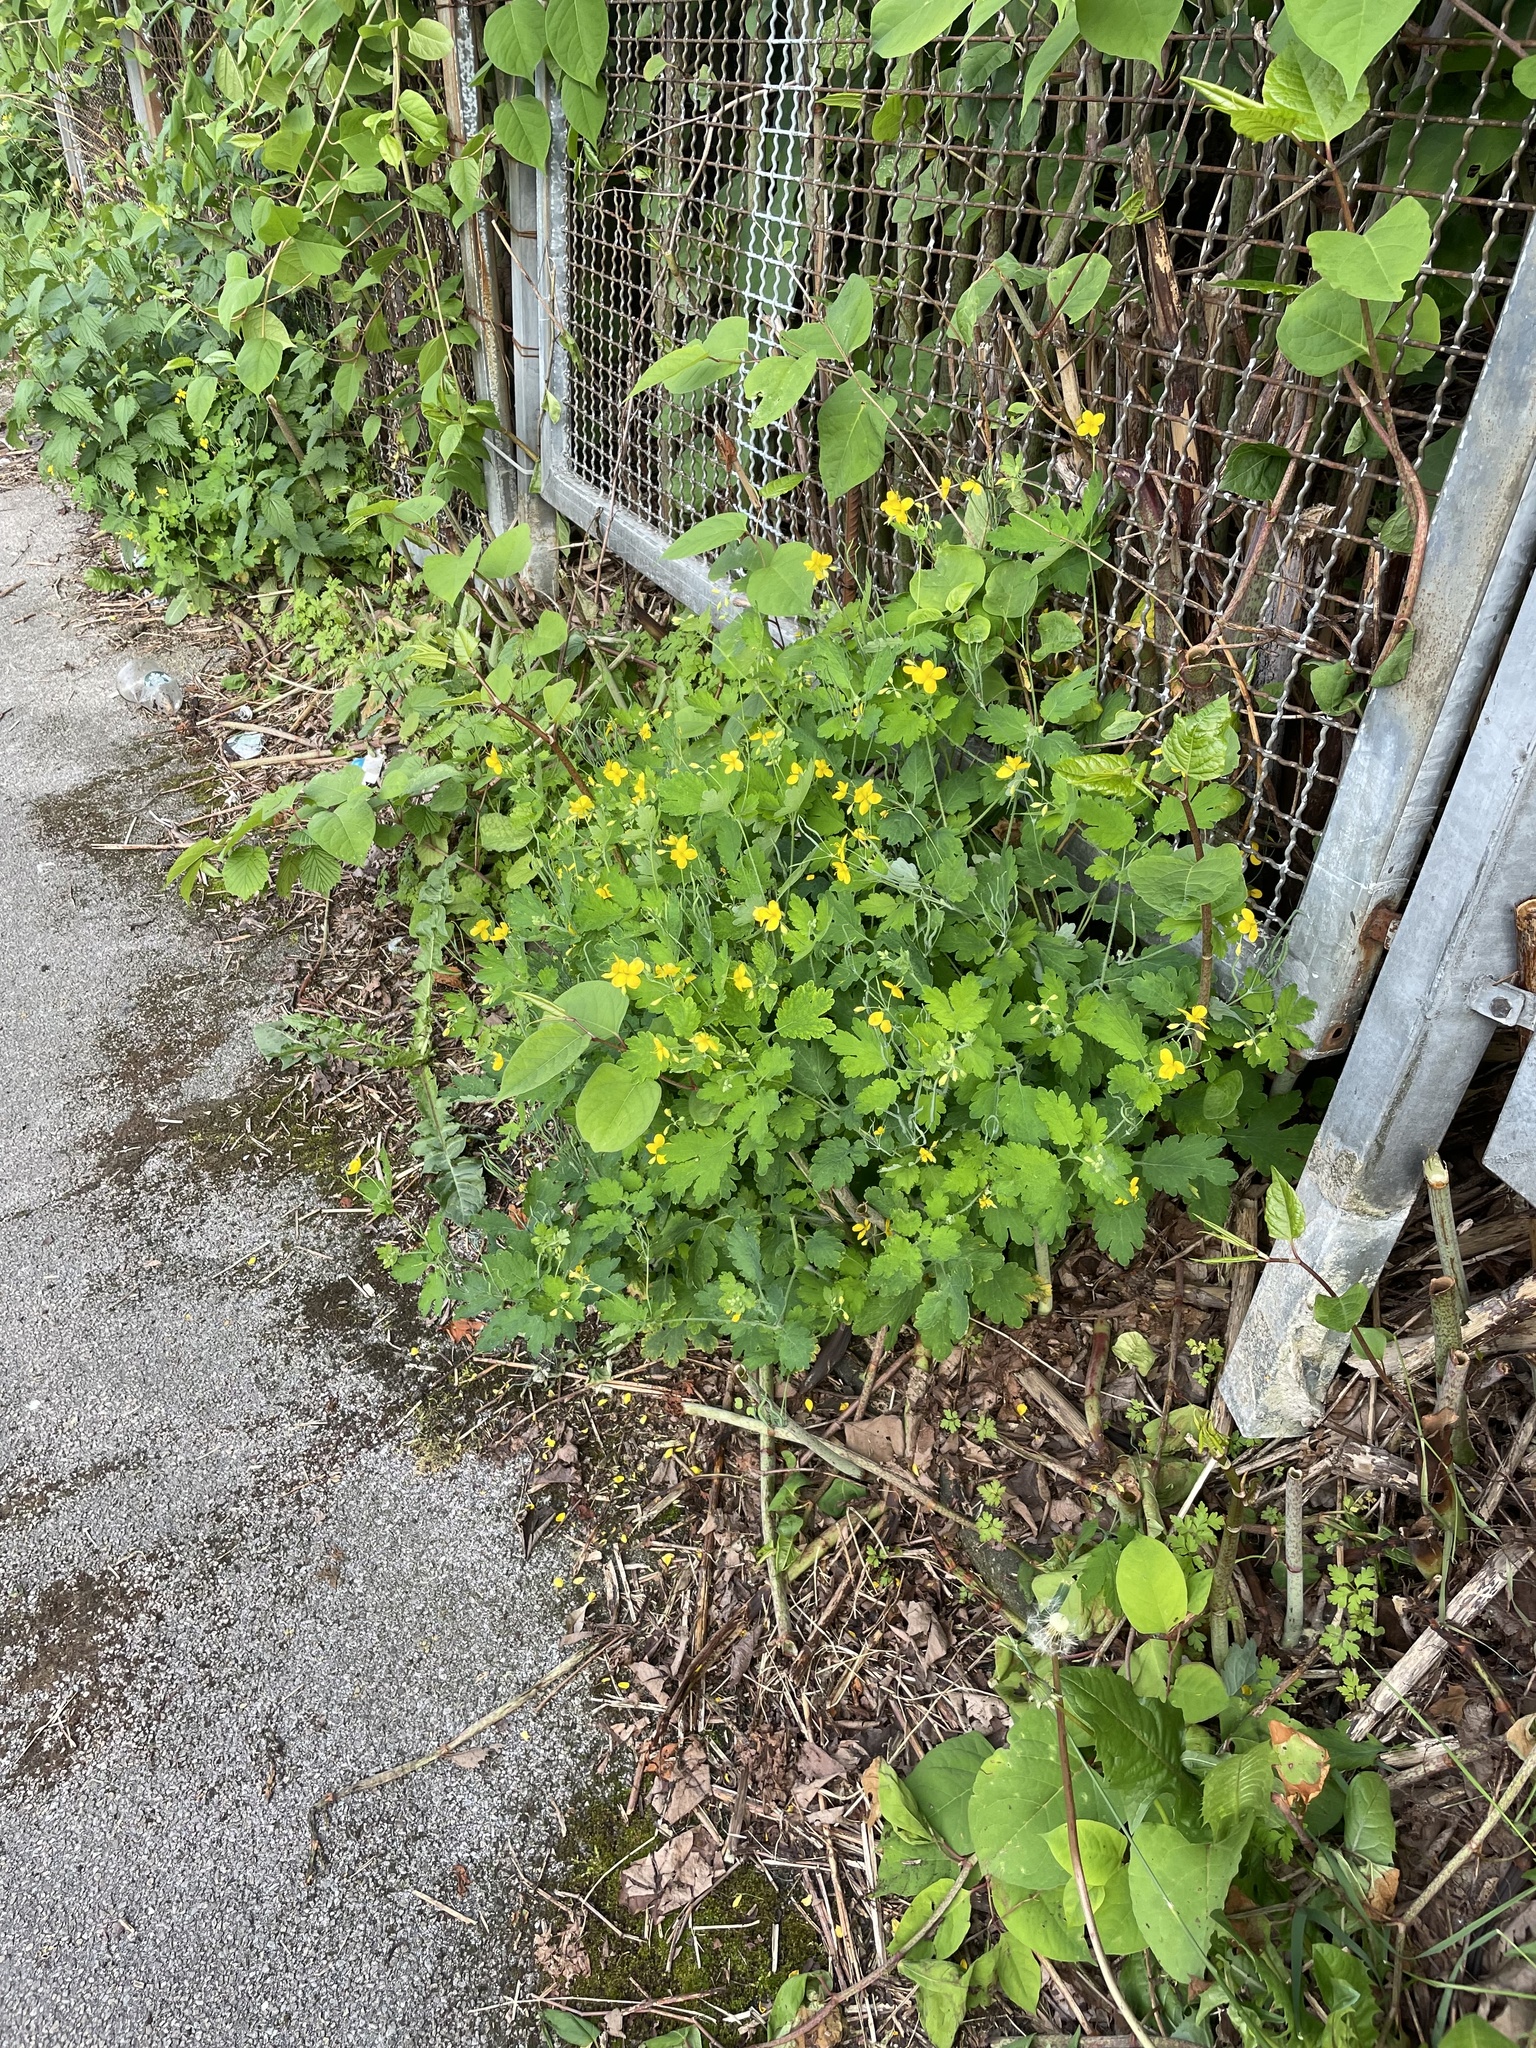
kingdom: Plantae
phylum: Tracheophyta
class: Magnoliopsida
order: Ranunculales
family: Papaveraceae
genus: Chelidonium
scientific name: Chelidonium majus
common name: Greater celandine
